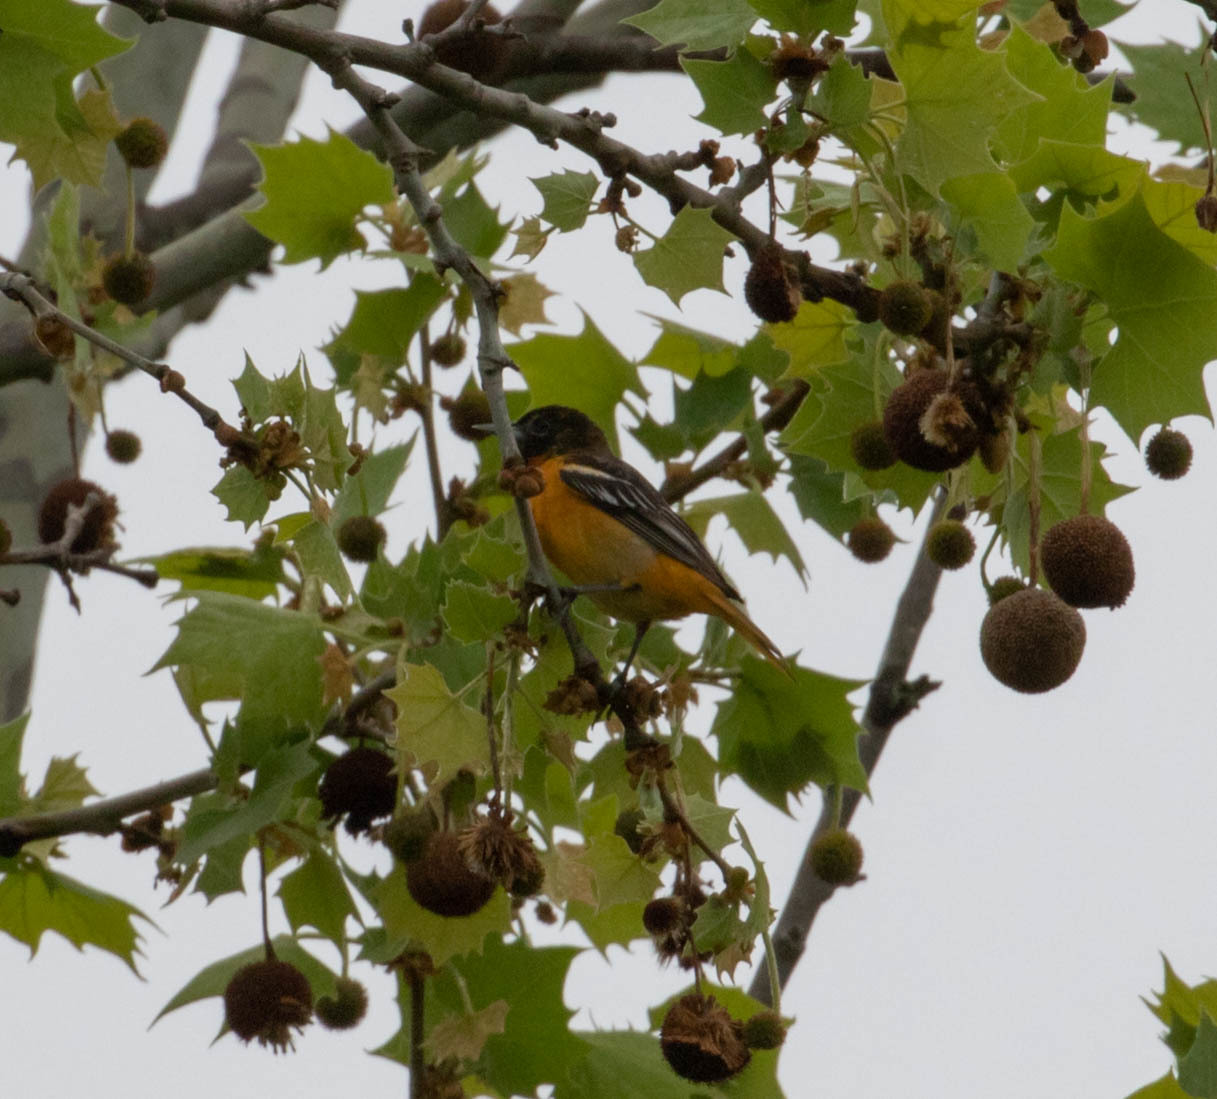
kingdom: Animalia
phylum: Chordata
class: Aves
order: Passeriformes
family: Icteridae
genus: Icterus
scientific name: Icterus galbula
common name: Baltimore oriole
